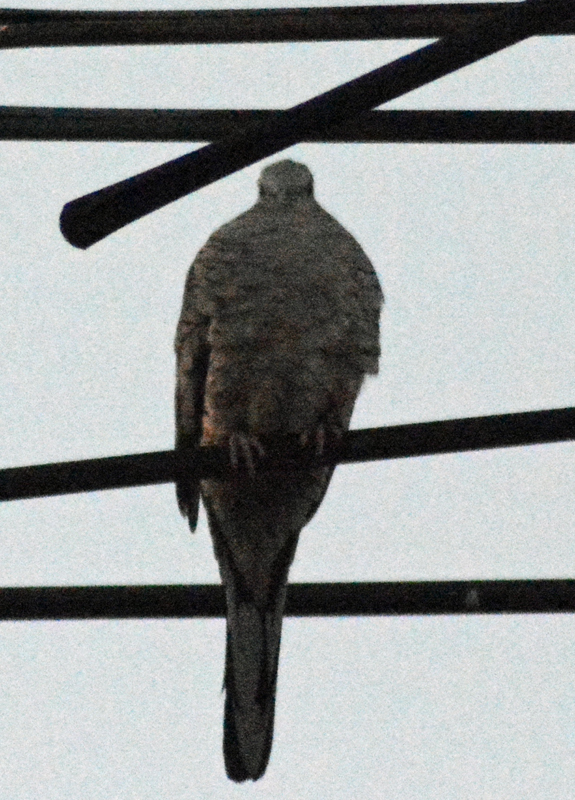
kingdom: Animalia
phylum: Chordata
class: Aves
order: Columbiformes
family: Columbidae
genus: Columbina
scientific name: Columbina inca
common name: Inca dove
